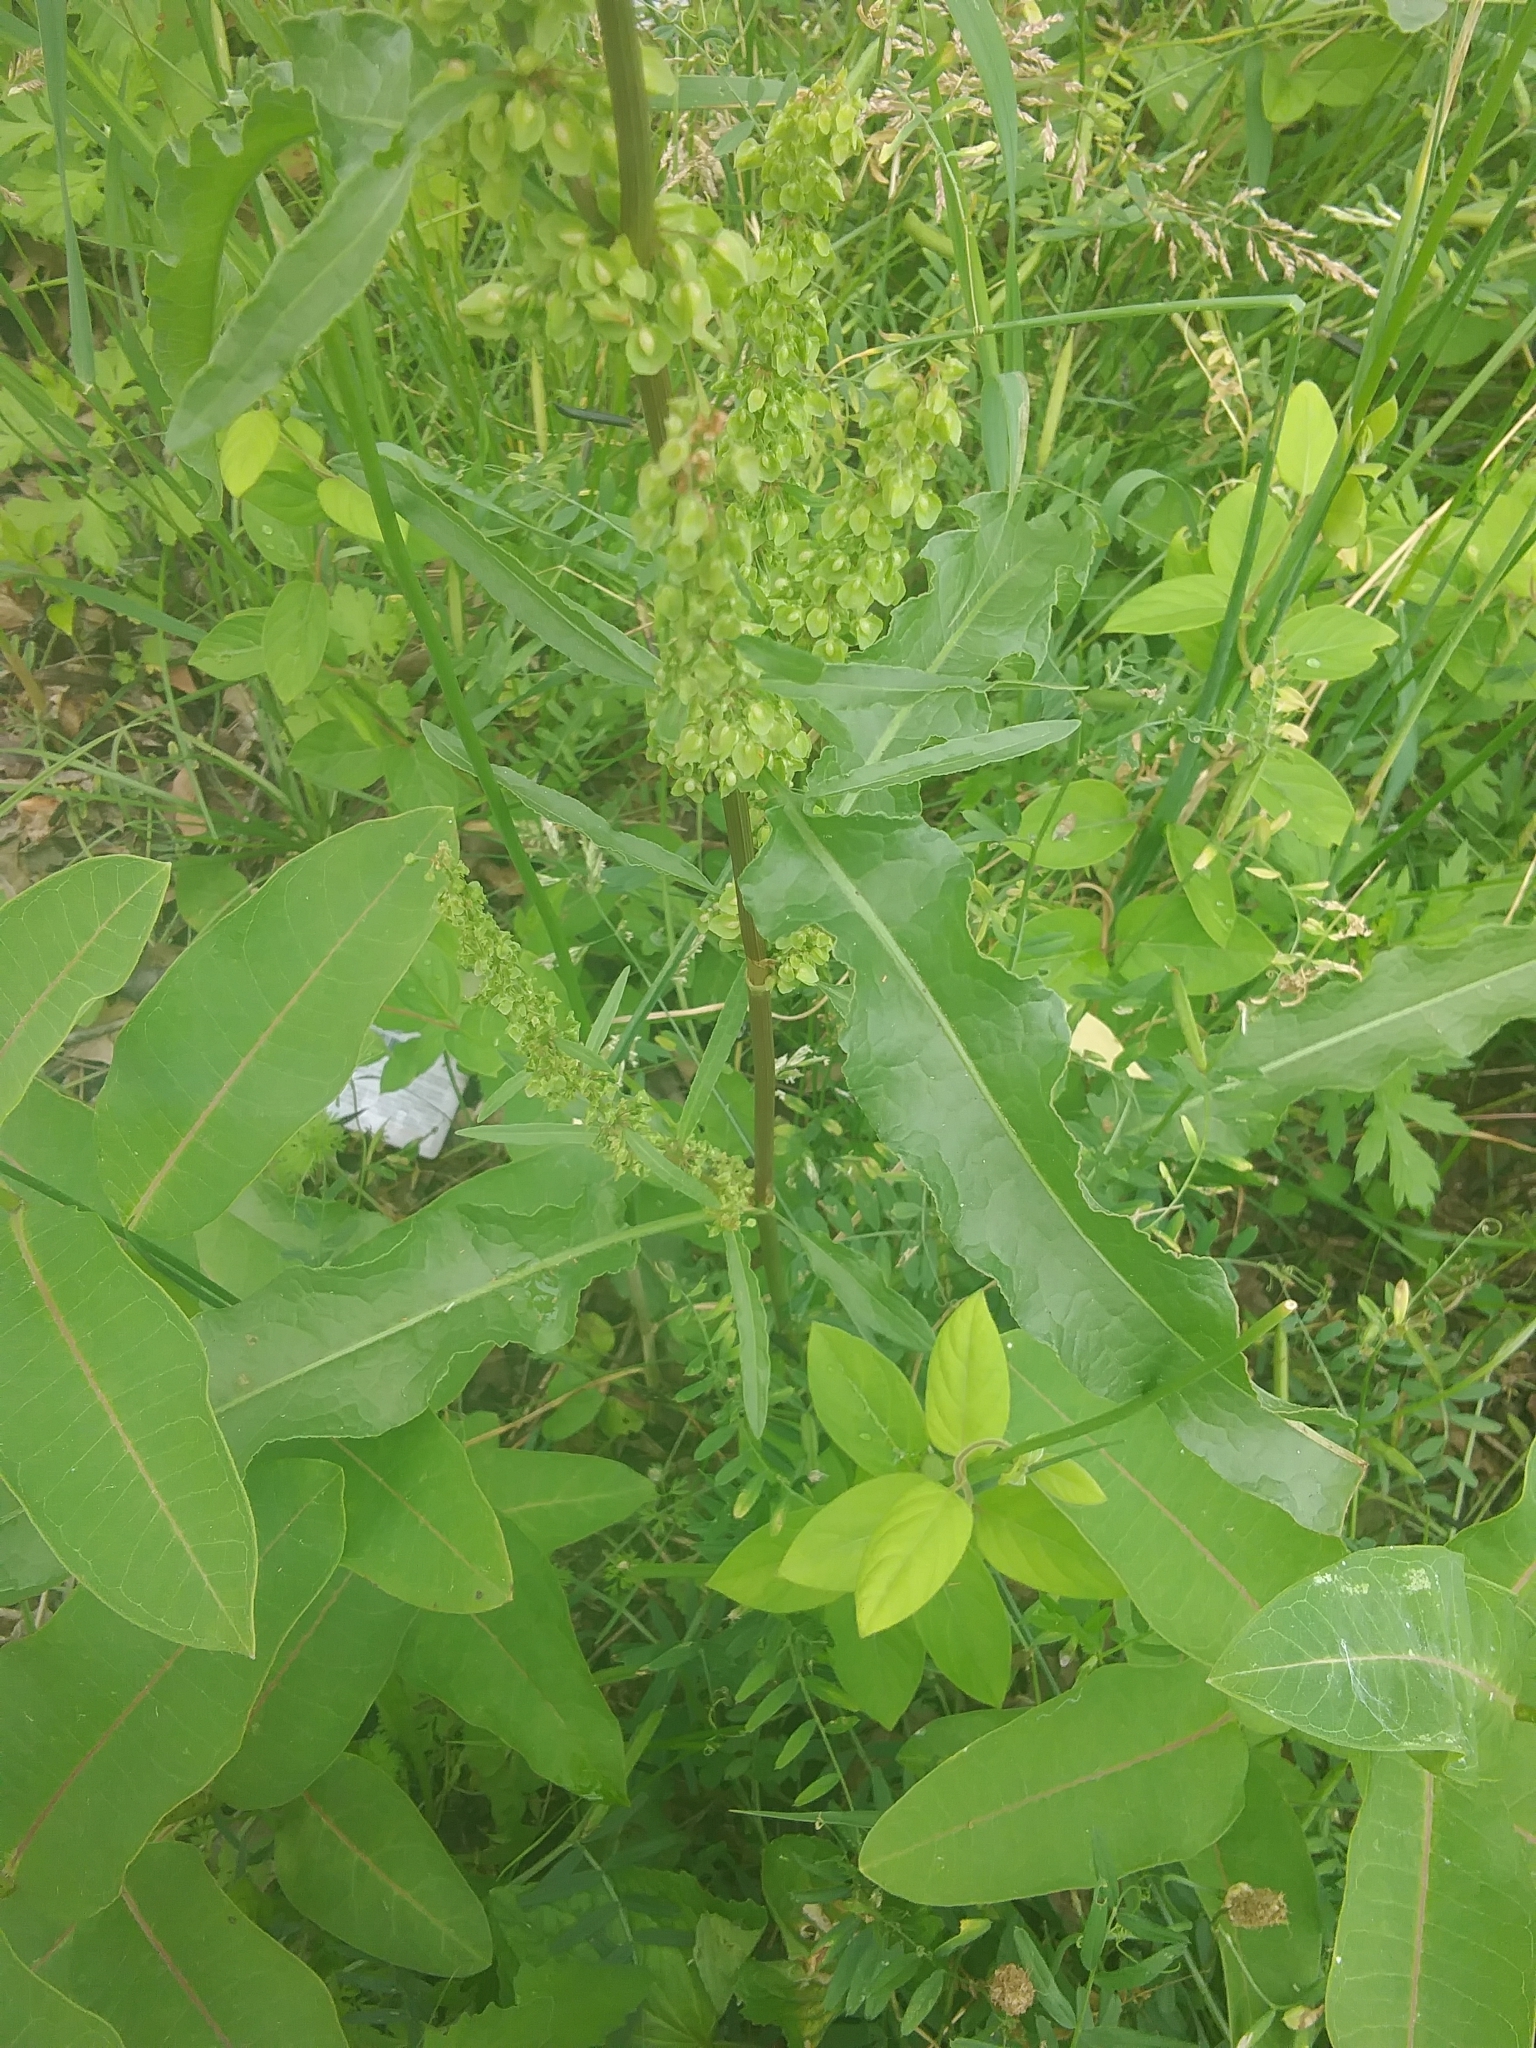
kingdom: Plantae
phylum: Tracheophyta
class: Magnoliopsida
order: Caryophyllales
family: Polygonaceae
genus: Rumex
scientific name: Rumex crispus
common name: Curled dock
